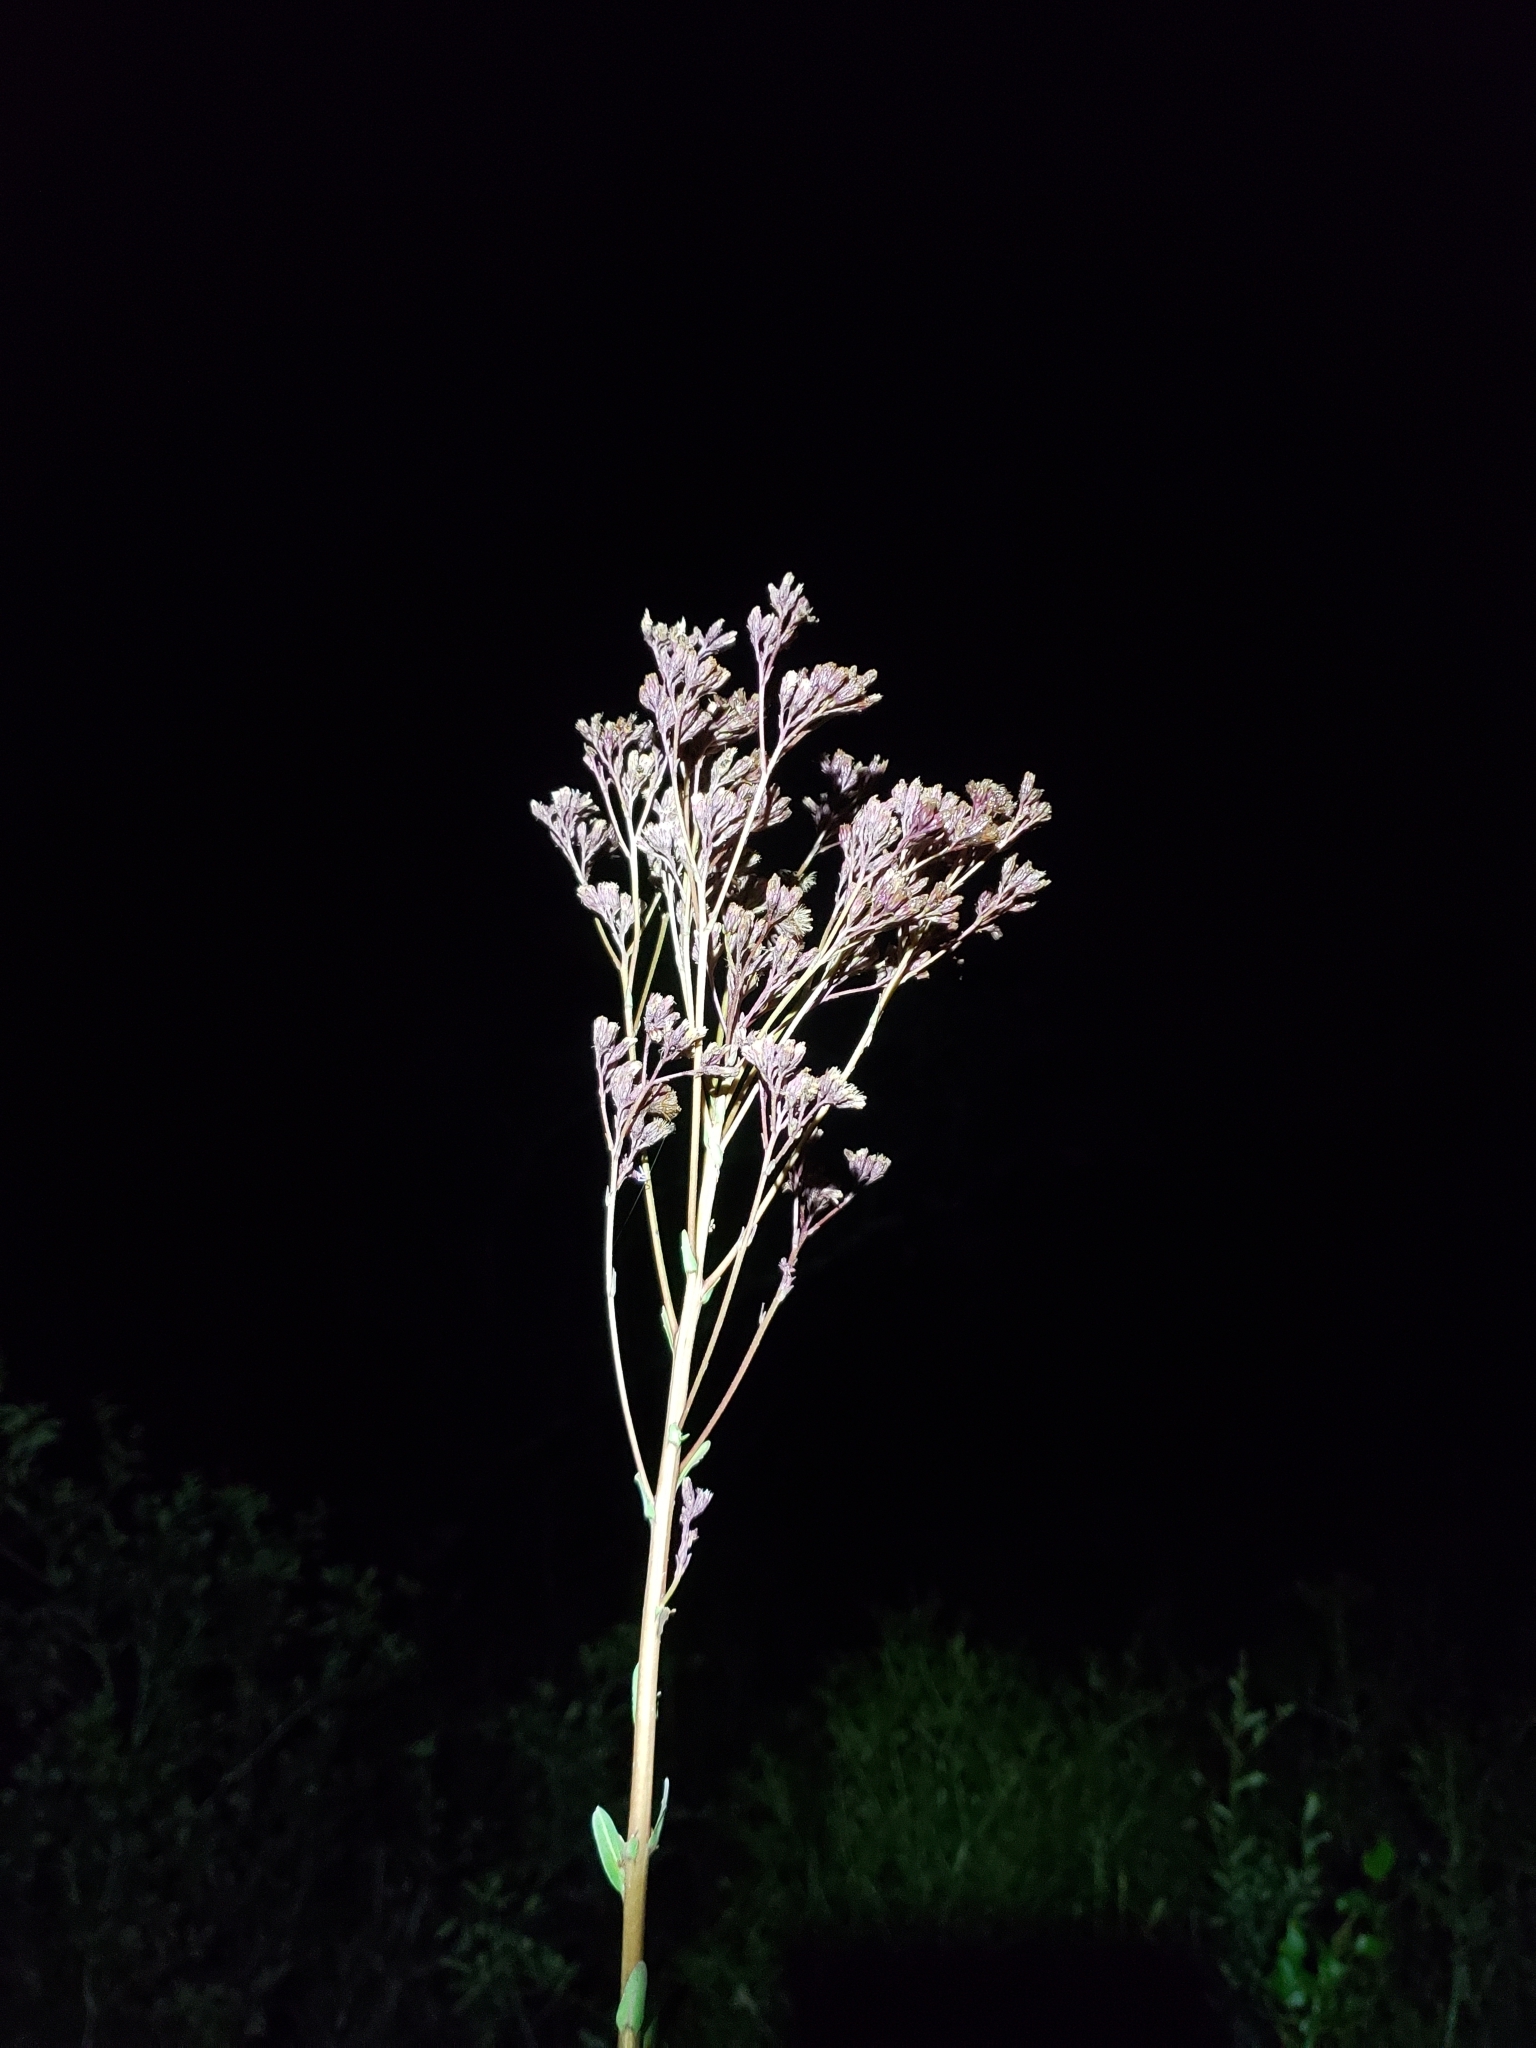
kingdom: Plantae
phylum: Tracheophyta
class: Magnoliopsida
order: Asterales
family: Asteraceae
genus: Carphephorus
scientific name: Carphephorus odoratissimus
